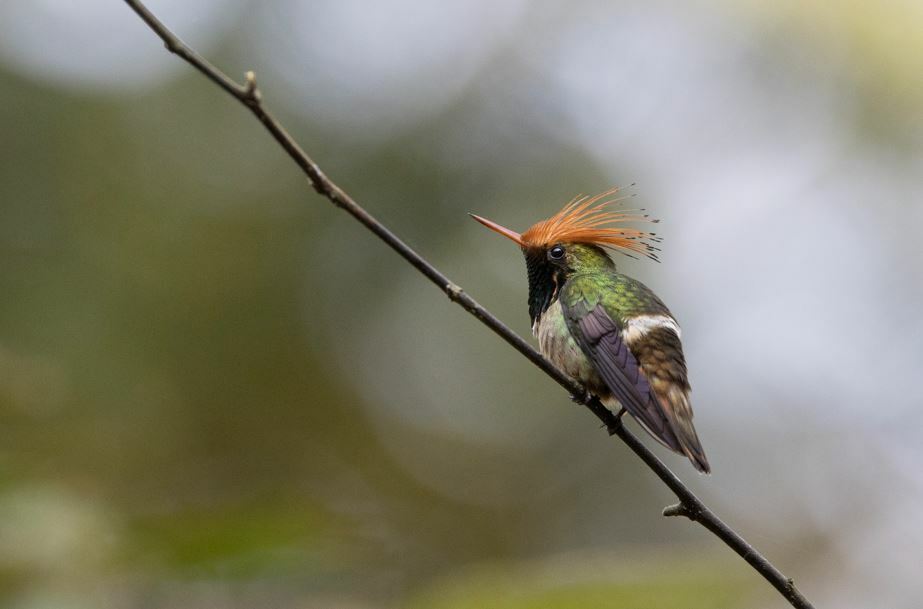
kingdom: Animalia
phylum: Chordata
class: Aves
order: Apodiformes
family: Trochilidae
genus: Lophornis
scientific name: Lophornis delattrei
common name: Rufous-crested coquette
